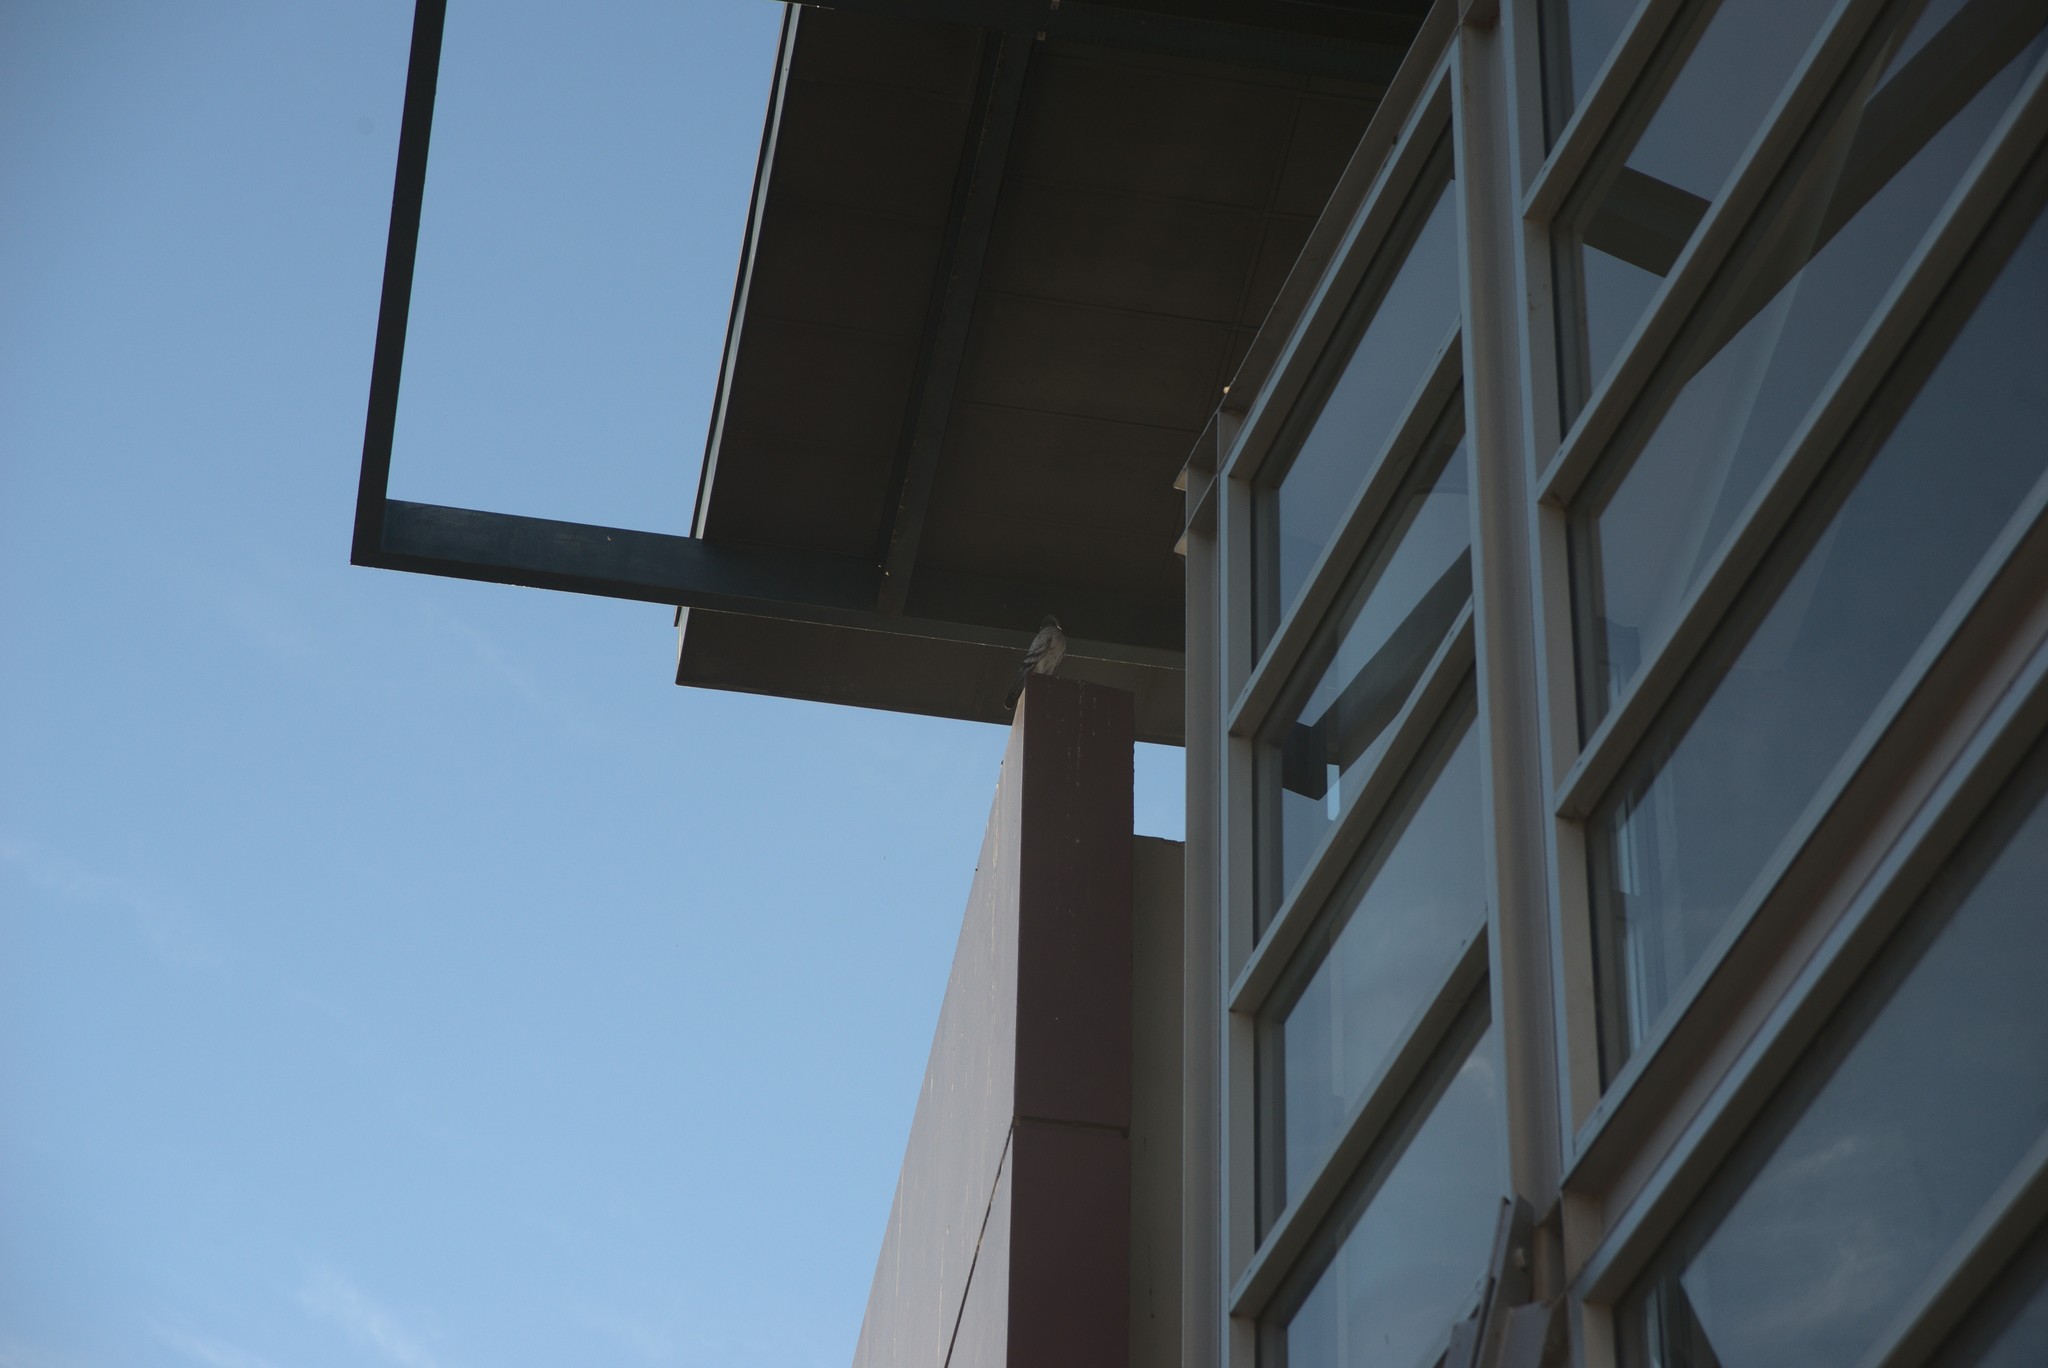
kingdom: Animalia
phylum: Chordata
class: Aves
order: Columbiformes
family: Columbidae
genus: Columba
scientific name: Columba livia
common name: Rock pigeon
